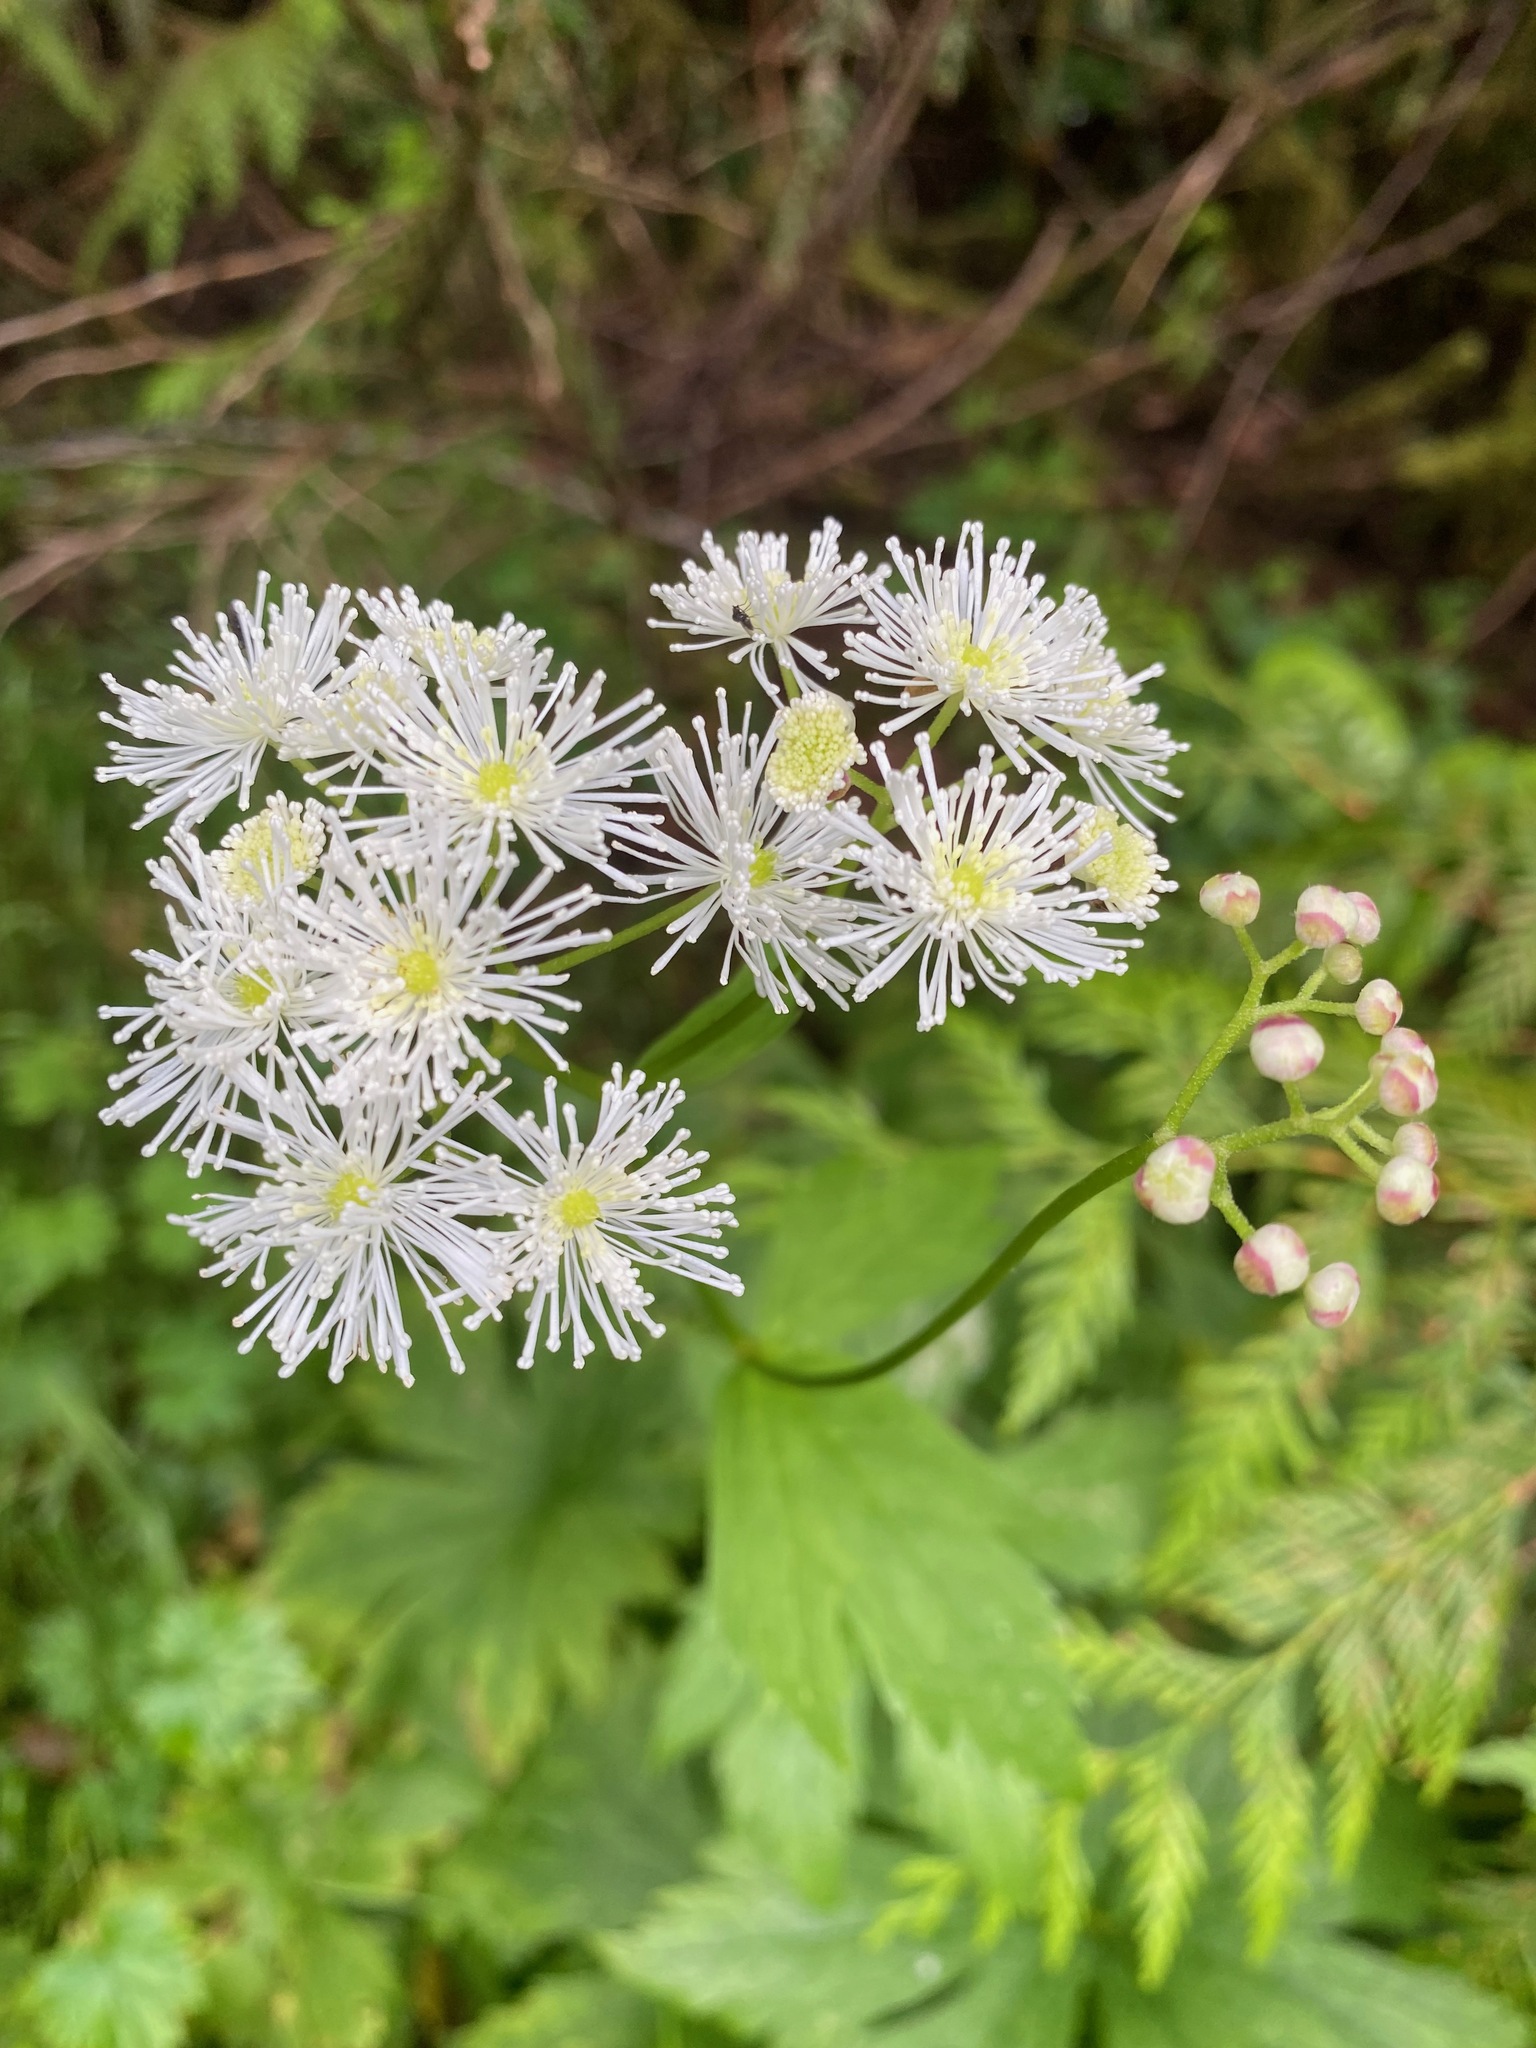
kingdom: Plantae
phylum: Tracheophyta
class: Magnoliopsida
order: Ranunculales
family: Ranunculaceae
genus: Trautvetteria
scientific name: Trautvetteria carolinensis
